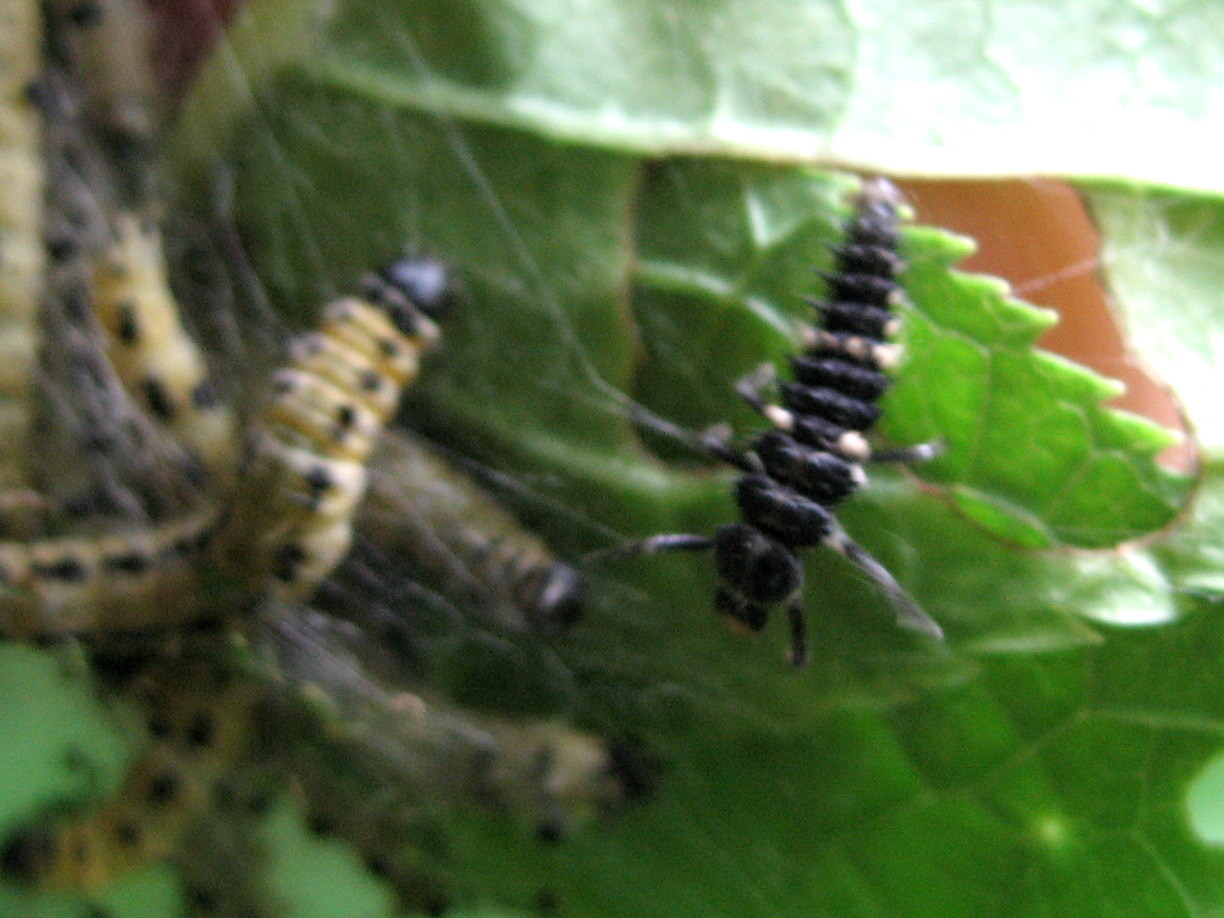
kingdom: Animalia
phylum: Arthropoda
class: Insecta
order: Coleoptera
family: Coccinellidae
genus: Calvia
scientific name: Calvia quatuordecimguttata
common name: Cream-spot ladybird
